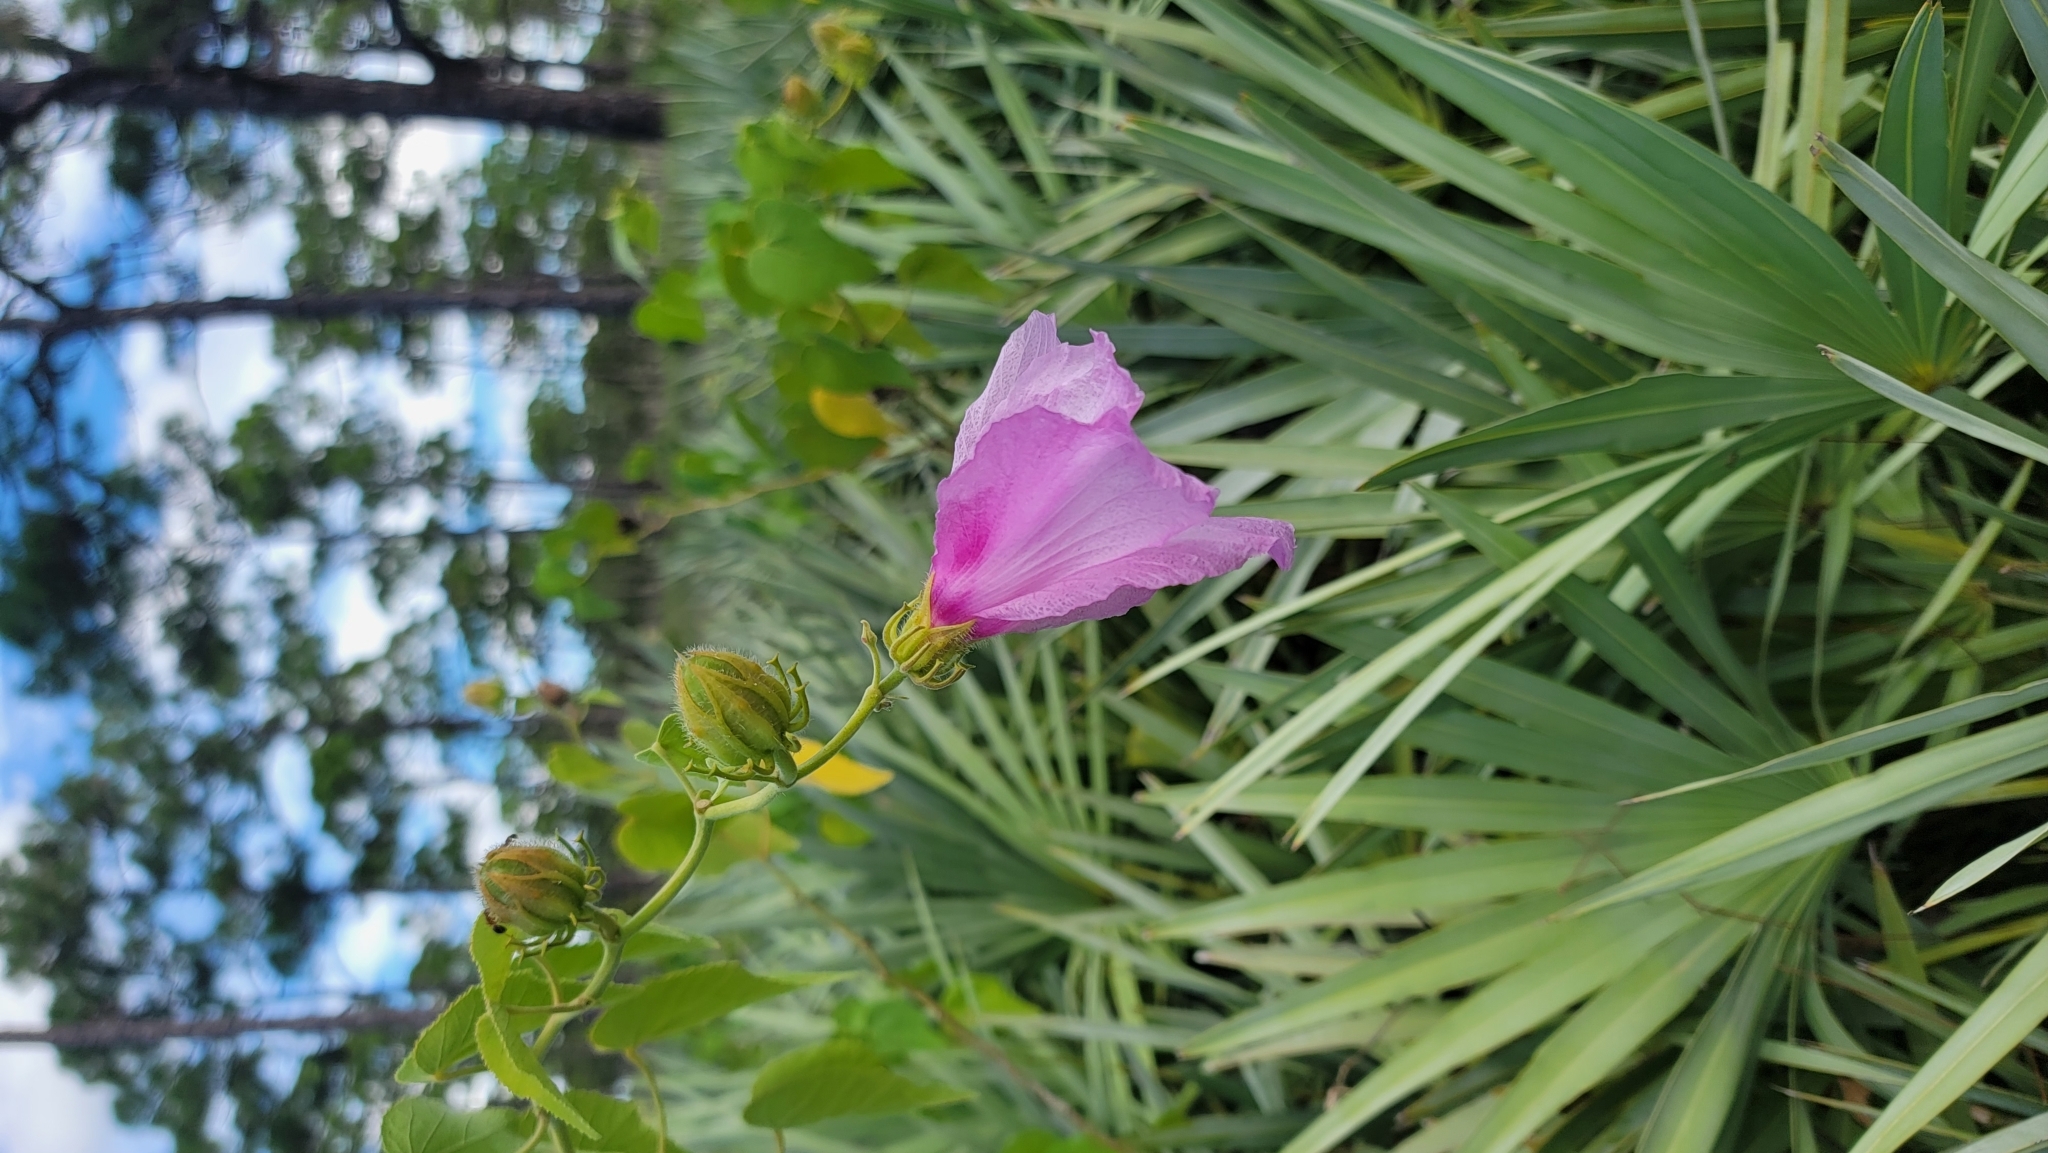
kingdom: Plantae
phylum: Tracheophyta
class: Magnoliopsida
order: Malvales
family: Malvaceae
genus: Hibiscus
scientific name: Hibiscus furcellatus
